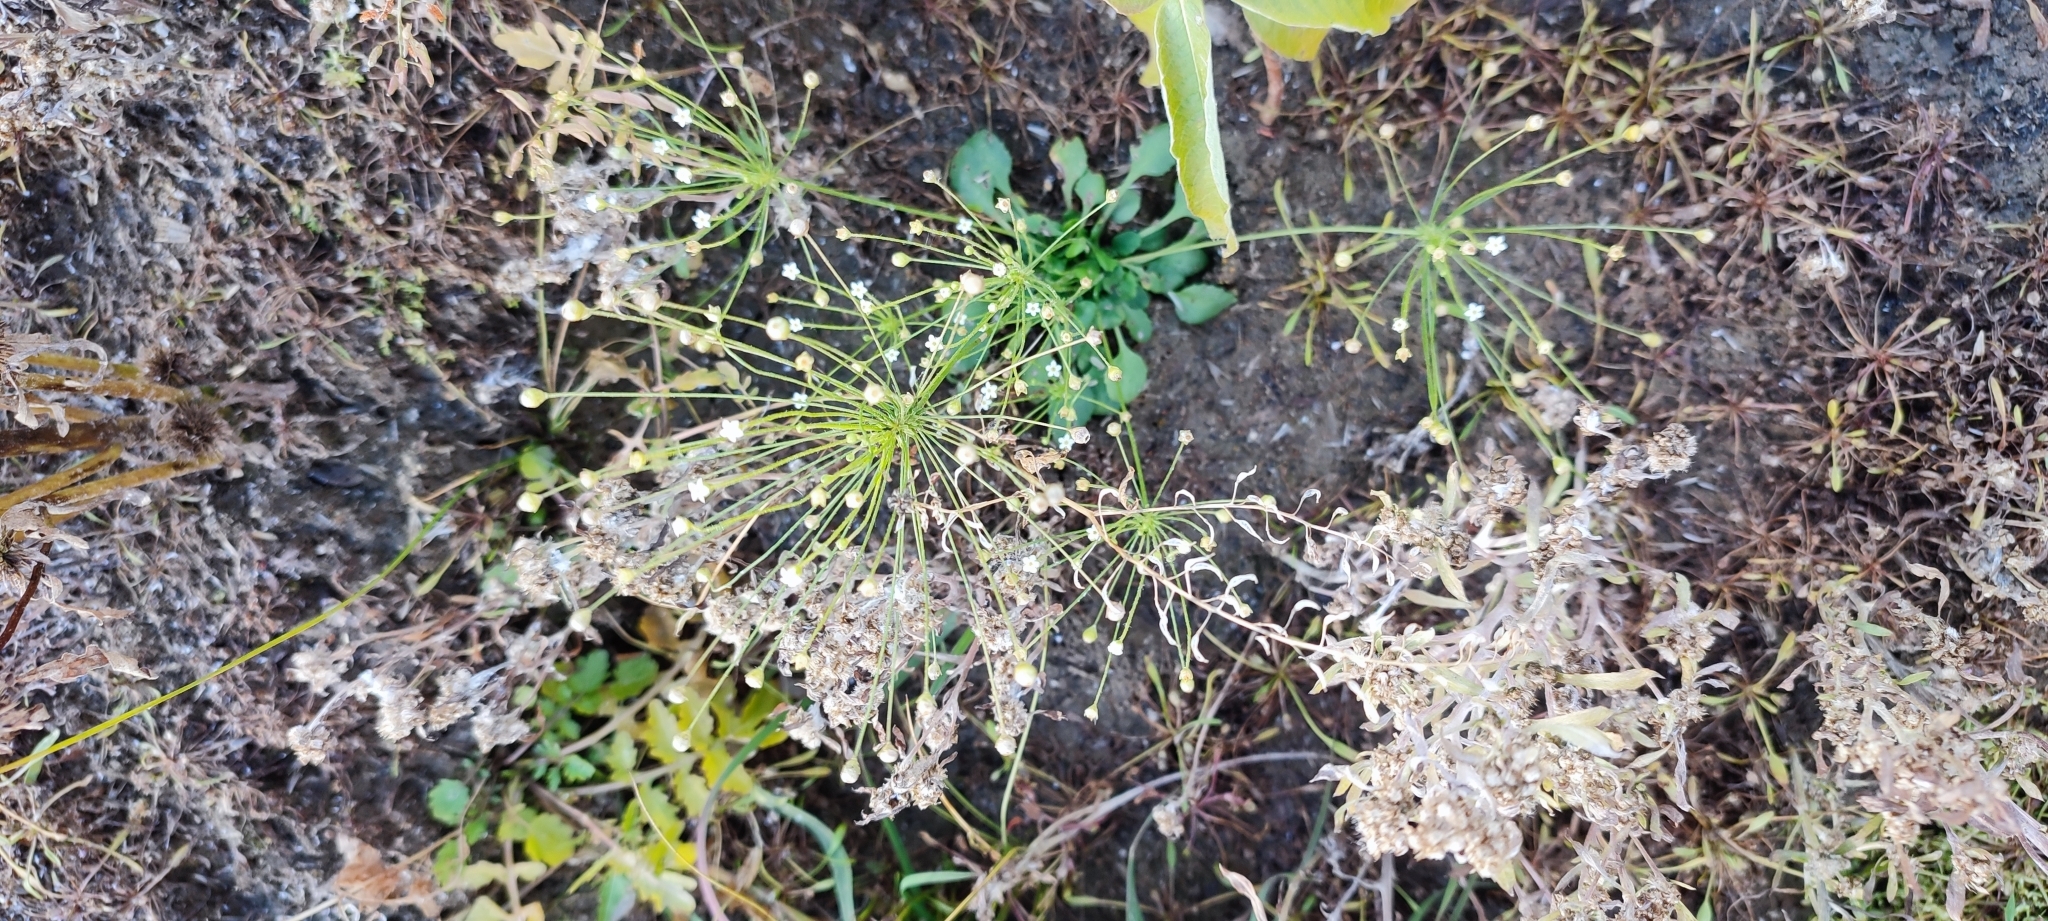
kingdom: Plantae
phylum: Tracheophyta
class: Magnoliopsida
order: Ericales
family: Primulaceae
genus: Androsace
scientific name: Androsace filiformis
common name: Filiform rock jasmine
